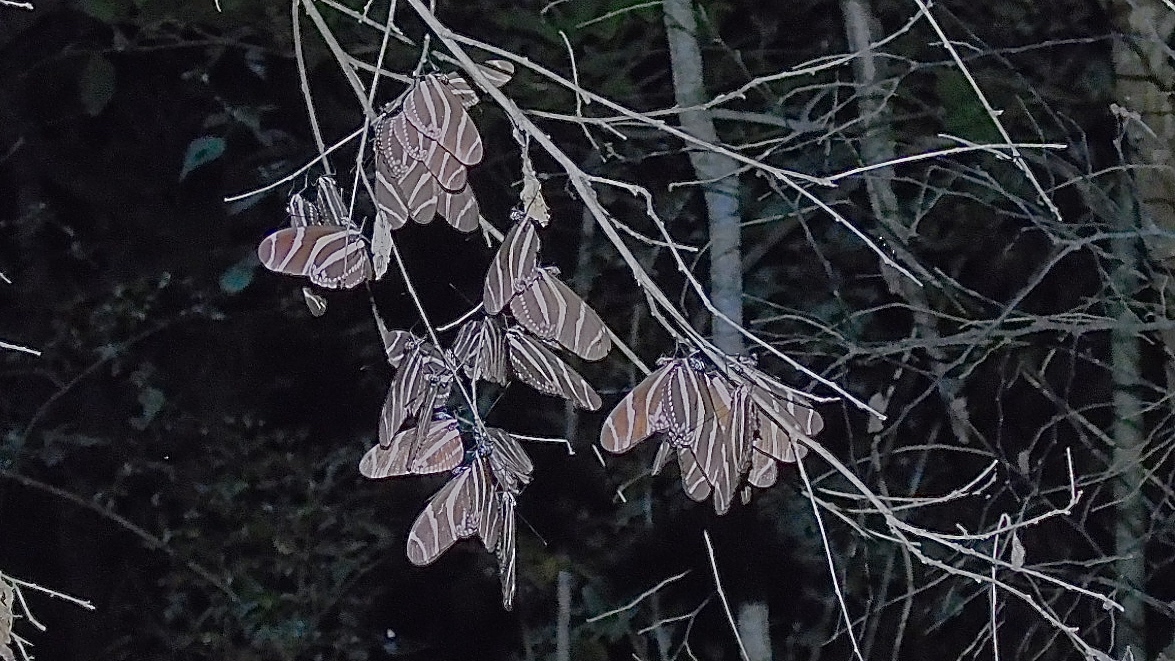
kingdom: Animalia
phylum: Arthropoda
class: Insecta
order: Lepidoptera
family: Nymphalidae
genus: Heliconius
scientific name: Heliconius charithonia
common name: Zebra long wing
